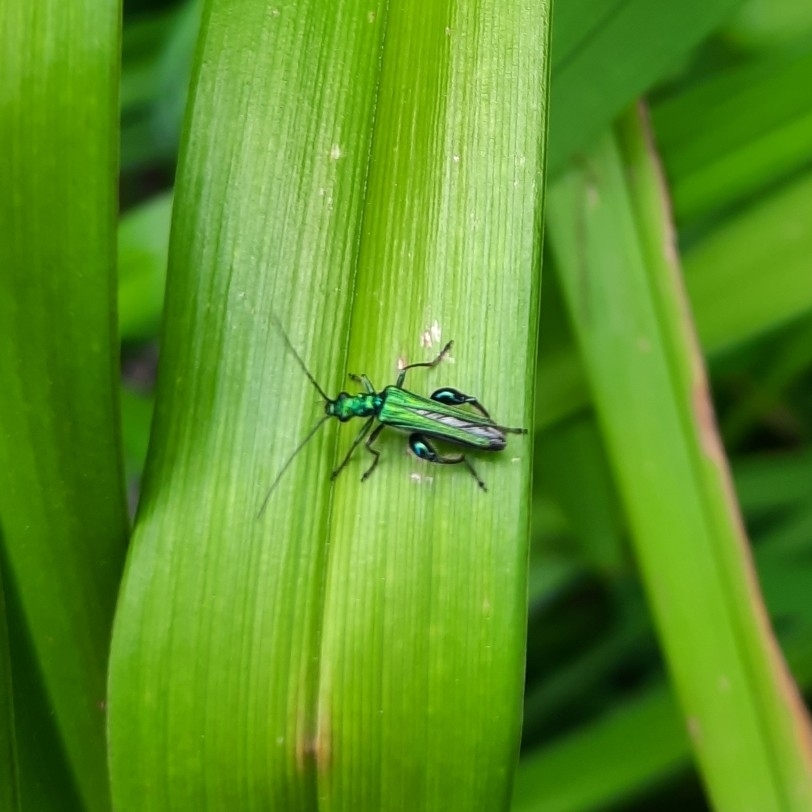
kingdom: Animalia
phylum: Arthropoda
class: Insecta
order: Coleoptera
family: Oedemeridae
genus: Oedemera
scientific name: Oedemera nobilis
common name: Swollen-thighed beetle
